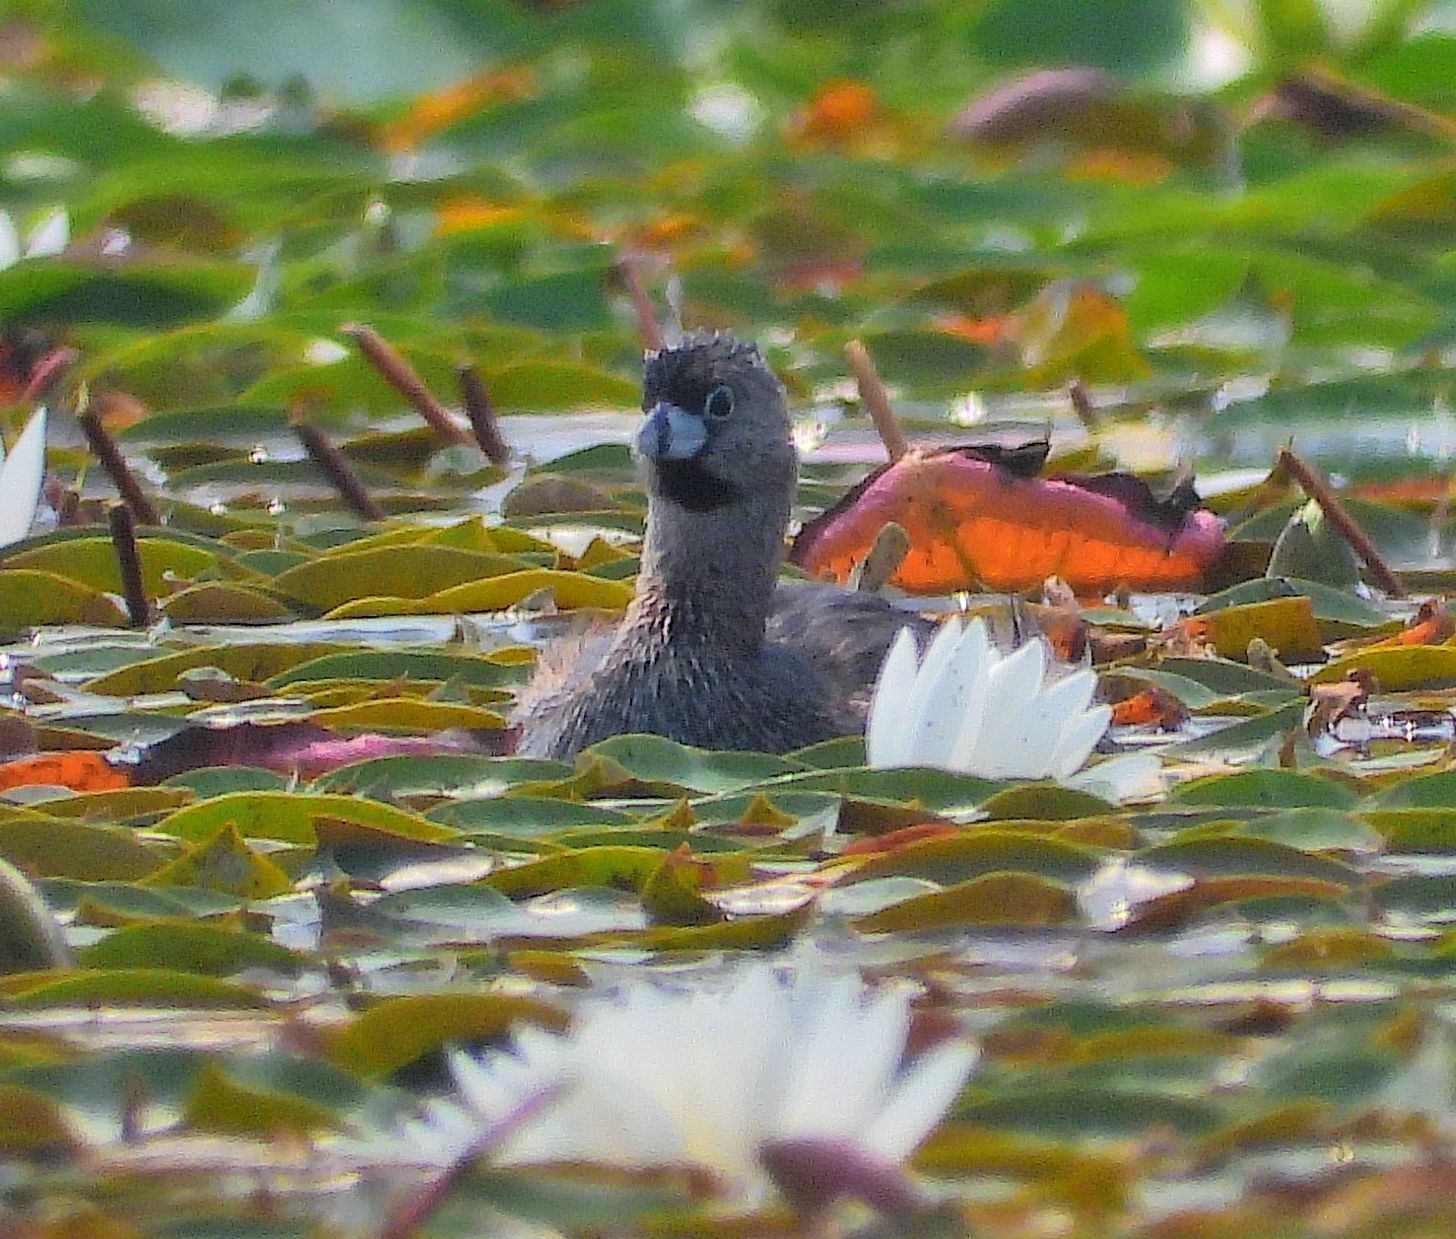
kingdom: Animalia
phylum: Chordata
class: Aves
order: Podicipediformes
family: Podicipedidae
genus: Podilymbus
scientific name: Podilymbus podiceps
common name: Pied-billed grebe
